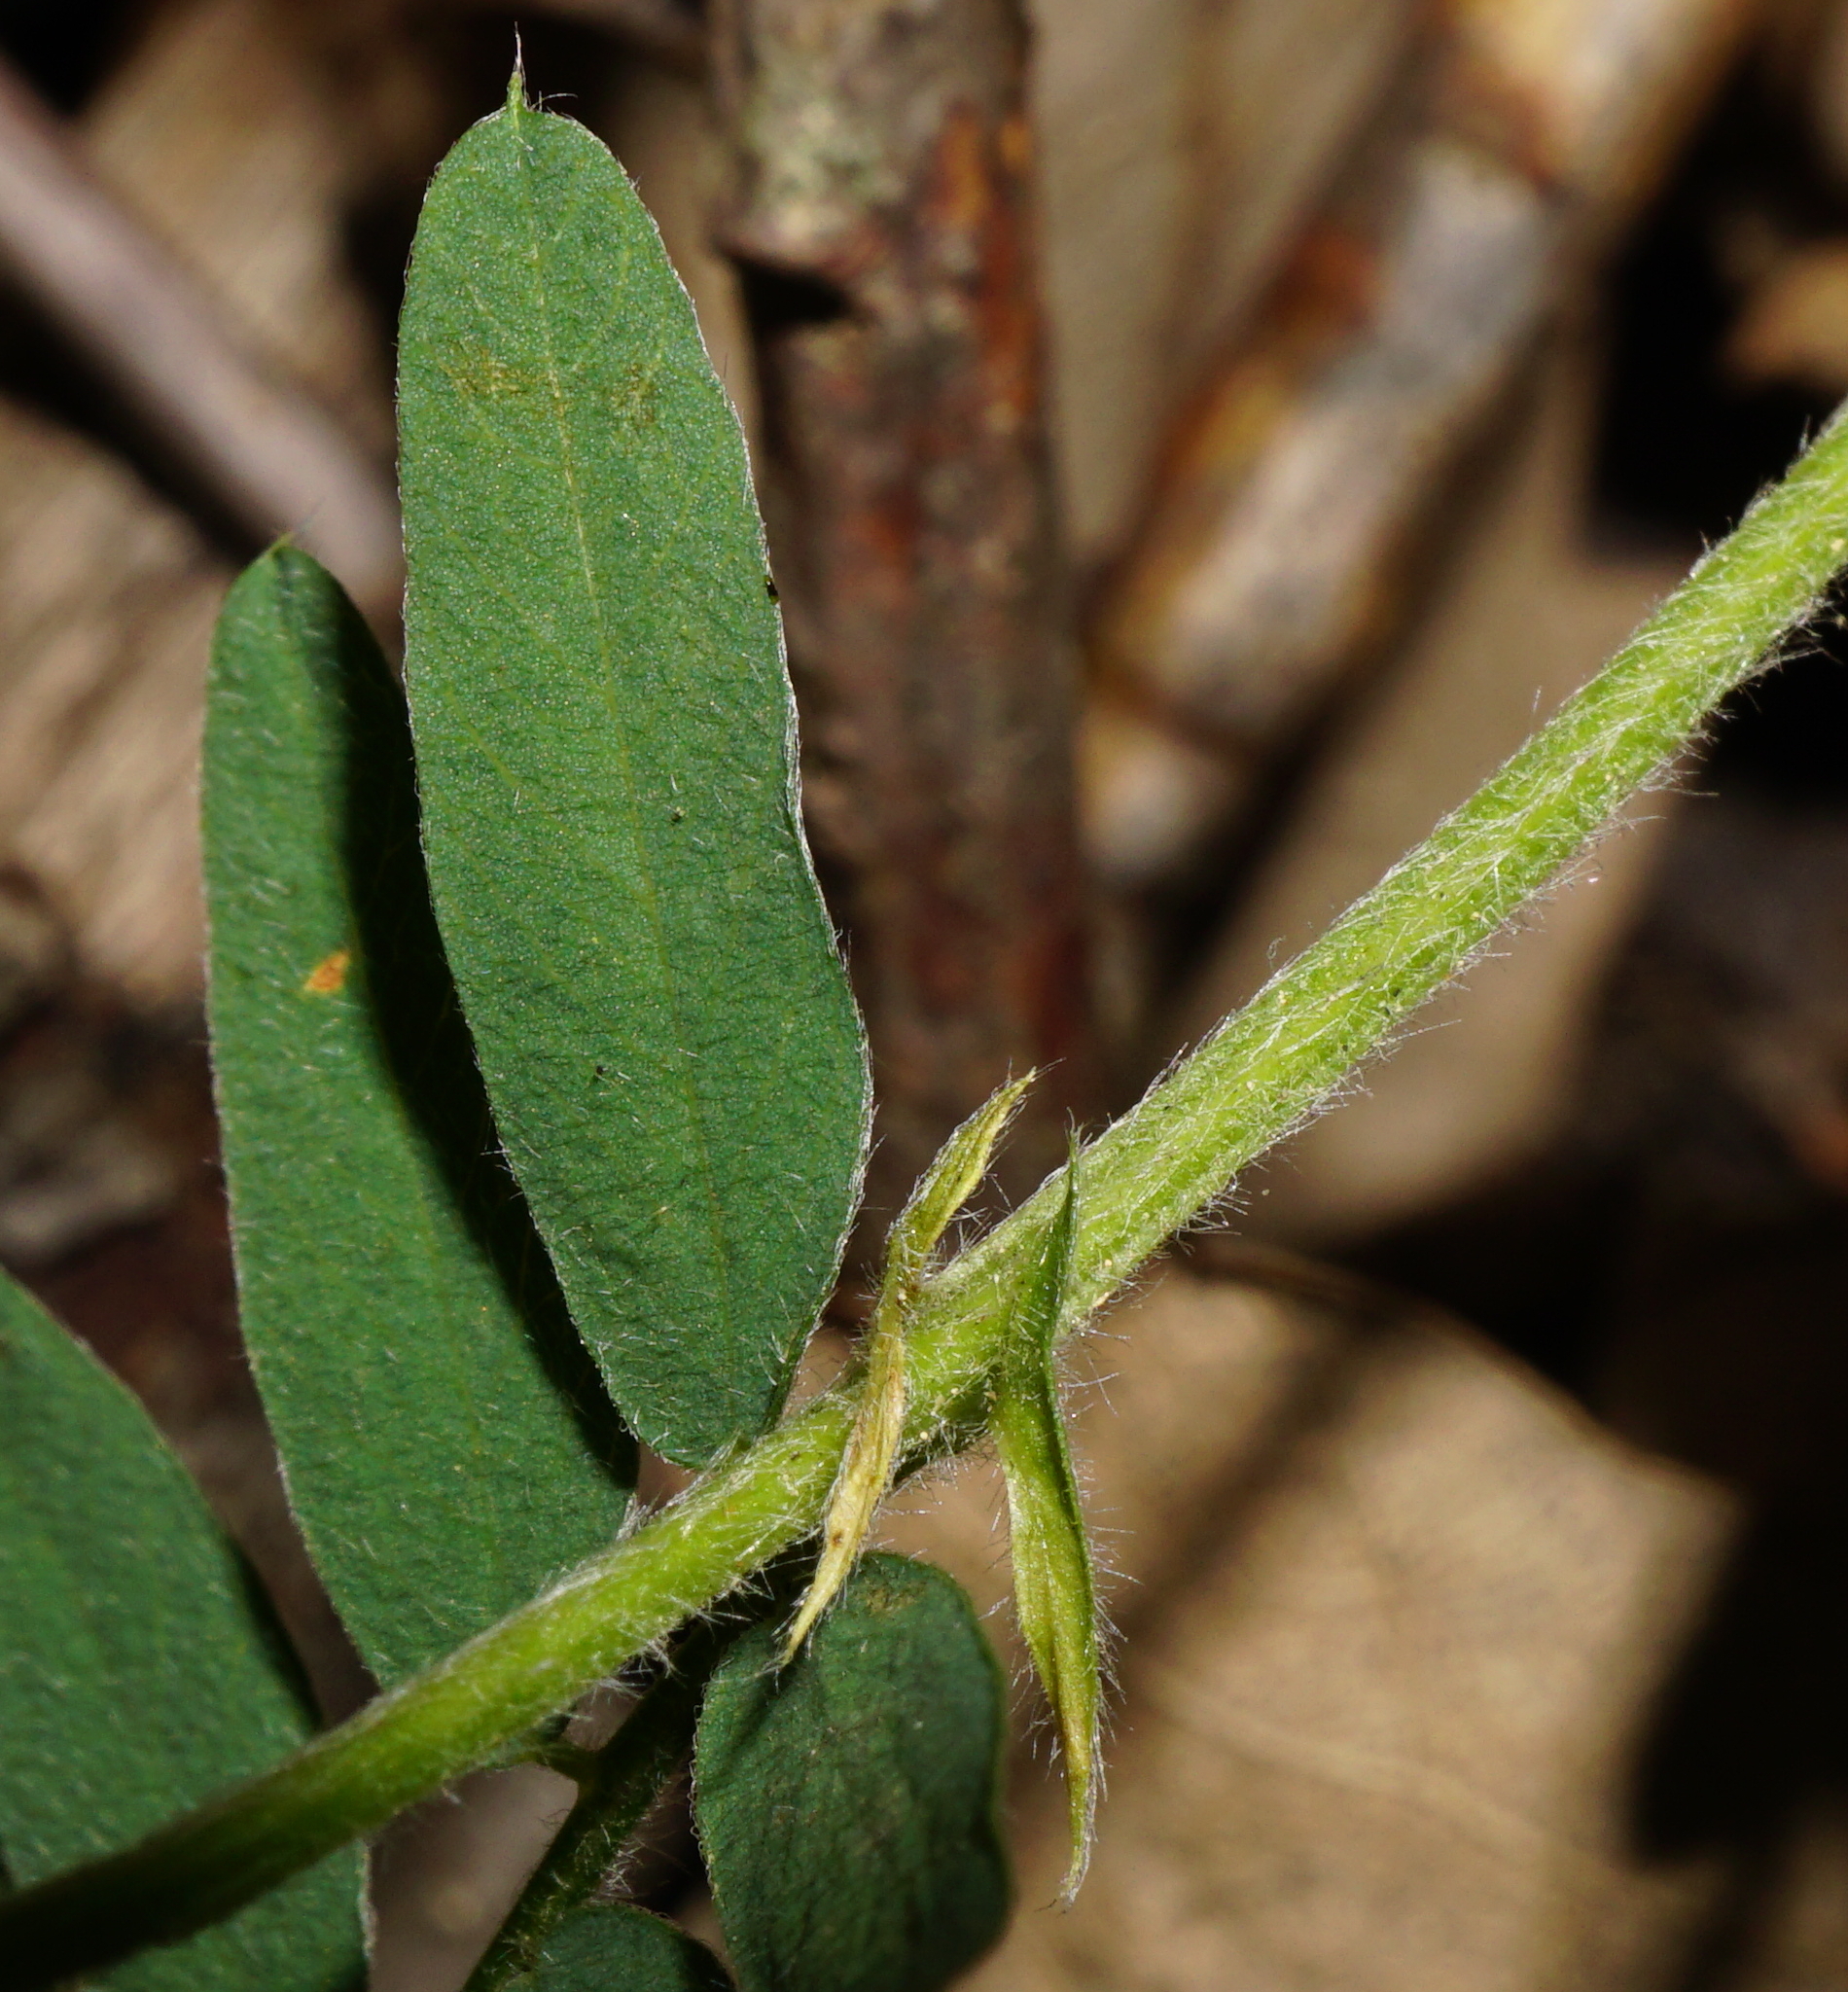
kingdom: Plantae
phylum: Tracheophyta
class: Magnoliopsida
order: Fabales
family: Fabaceae
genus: Vicia
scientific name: Vicia cassubica
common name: Danzig vetch
